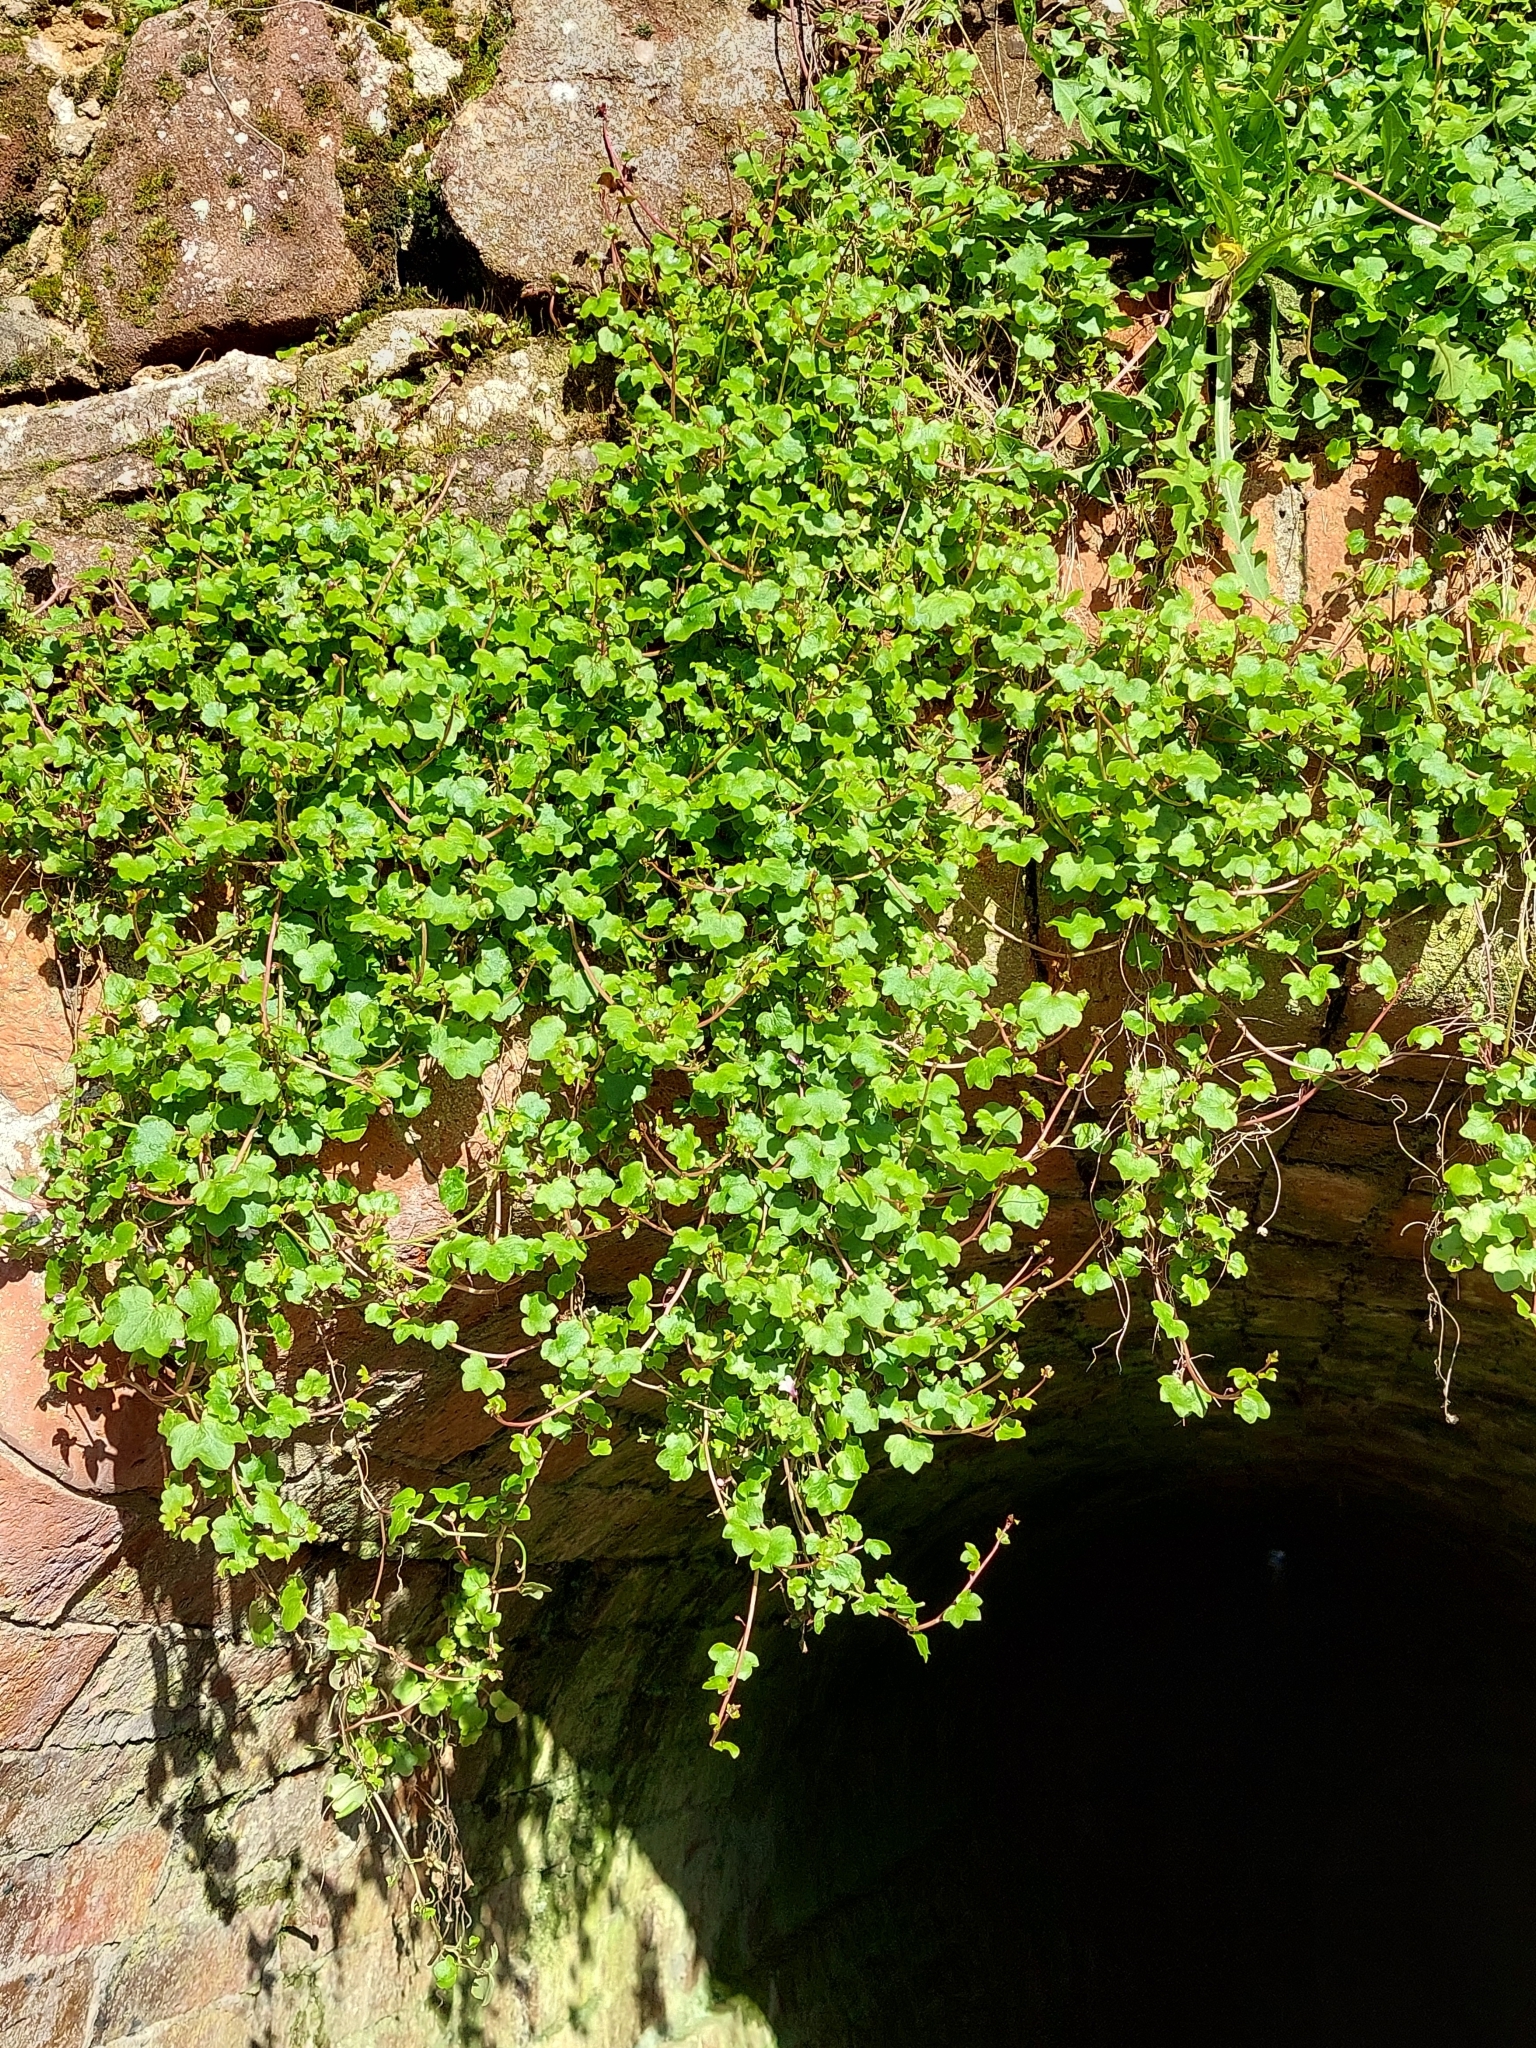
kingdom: Plantae
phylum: Tracheophyta
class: Magnoliopsida
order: Lamiales
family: Plantaginaceae
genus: Cymbalaria
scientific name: Cymbalaria muralis
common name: Ivy-leaved toadflax
